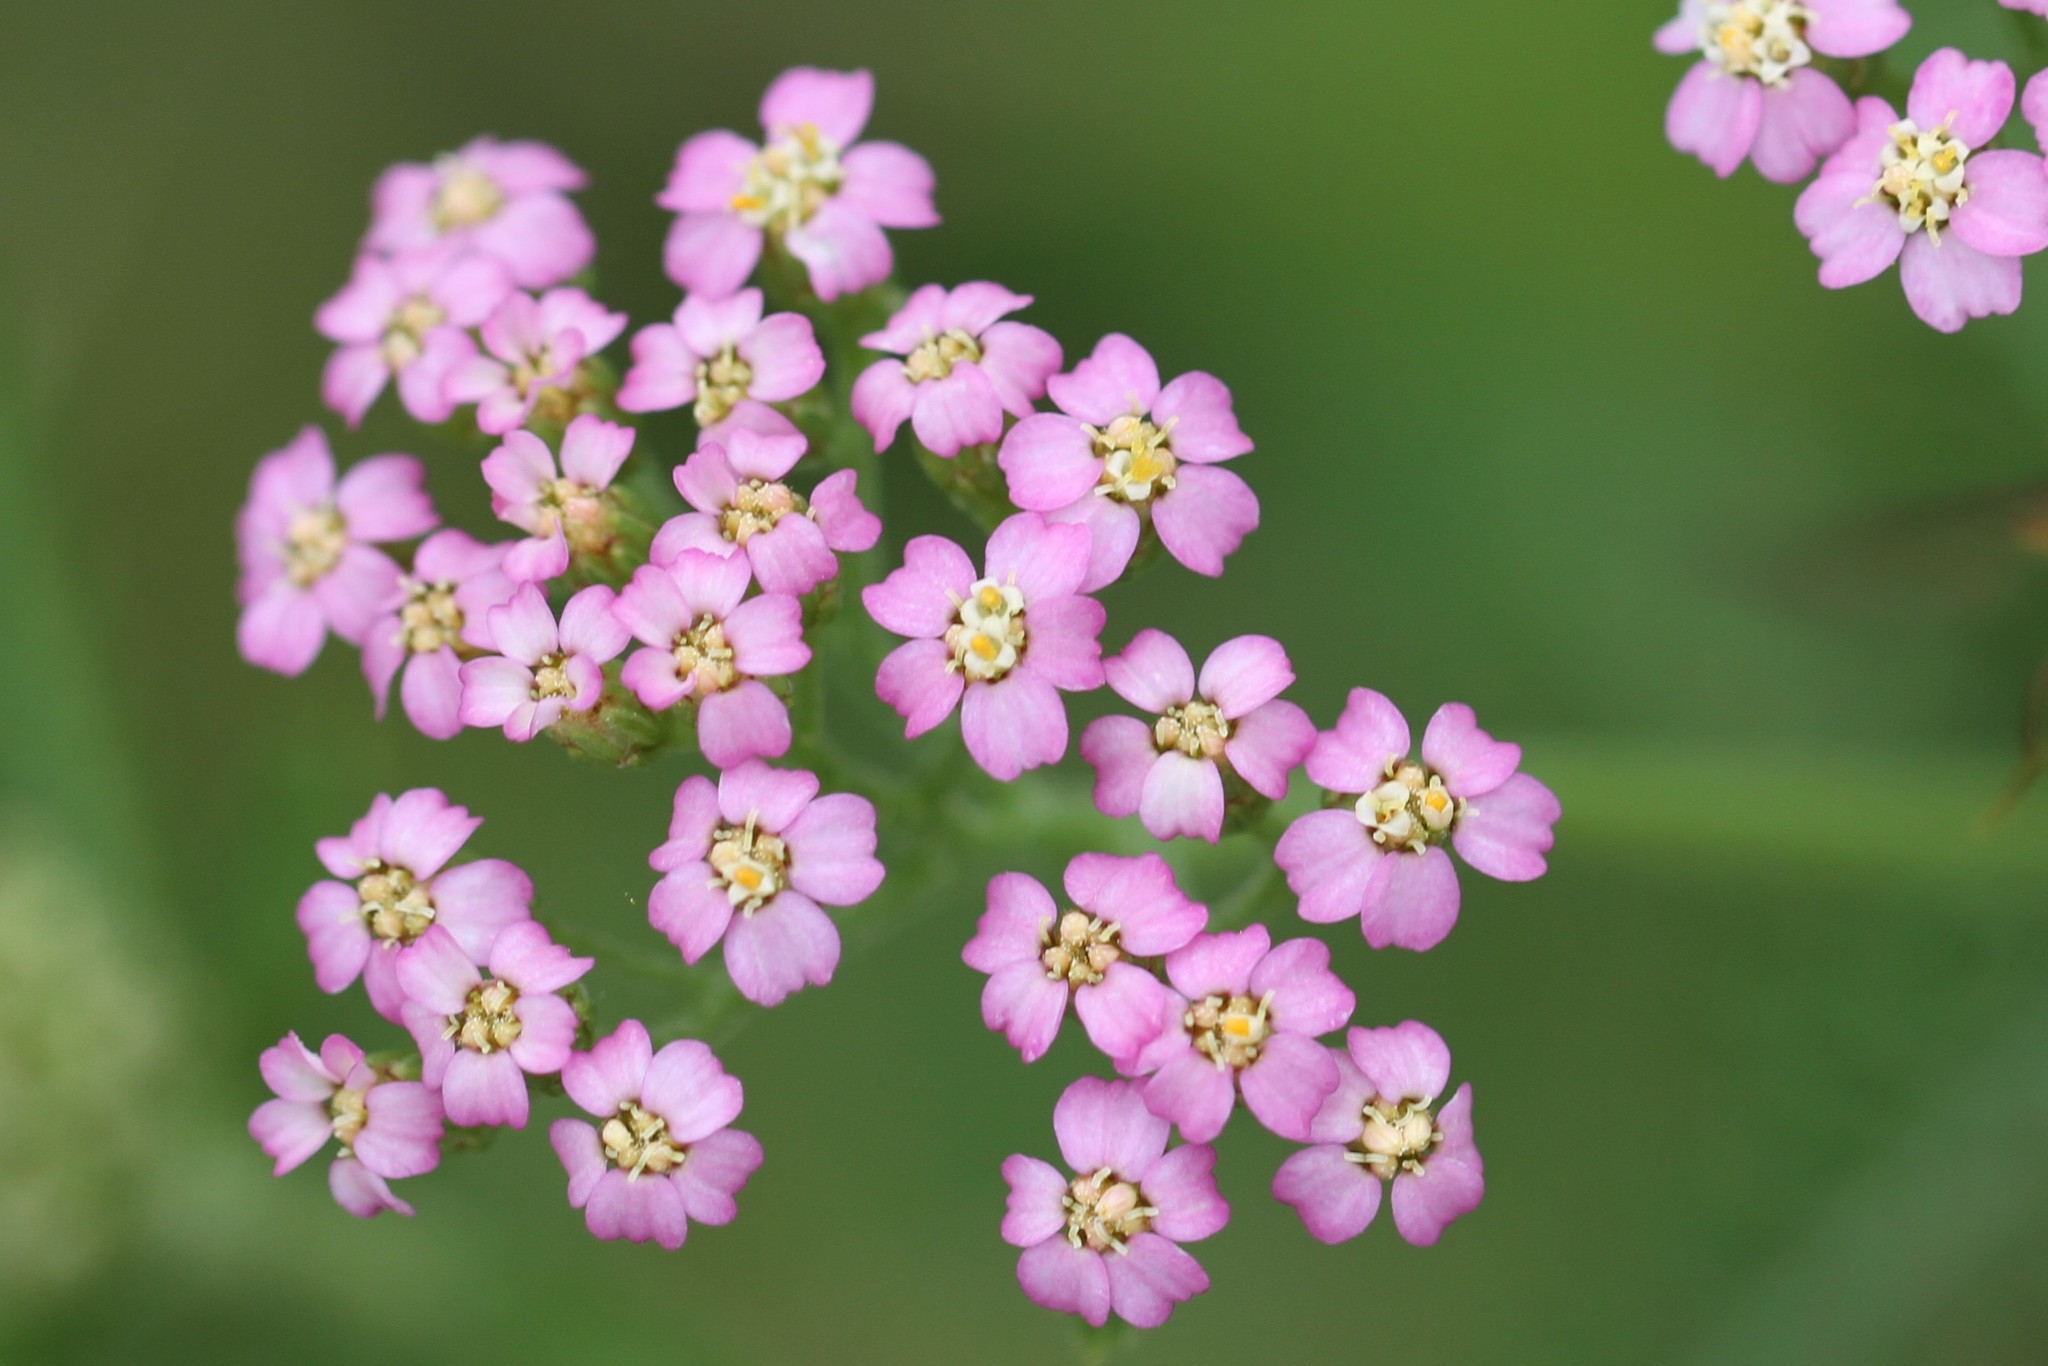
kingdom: Plantae
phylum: Tracheophyta
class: Magnoliopsida
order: Asterales
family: Asteraceae
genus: Achillea
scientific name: Achillea millefolium
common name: Yarrow
